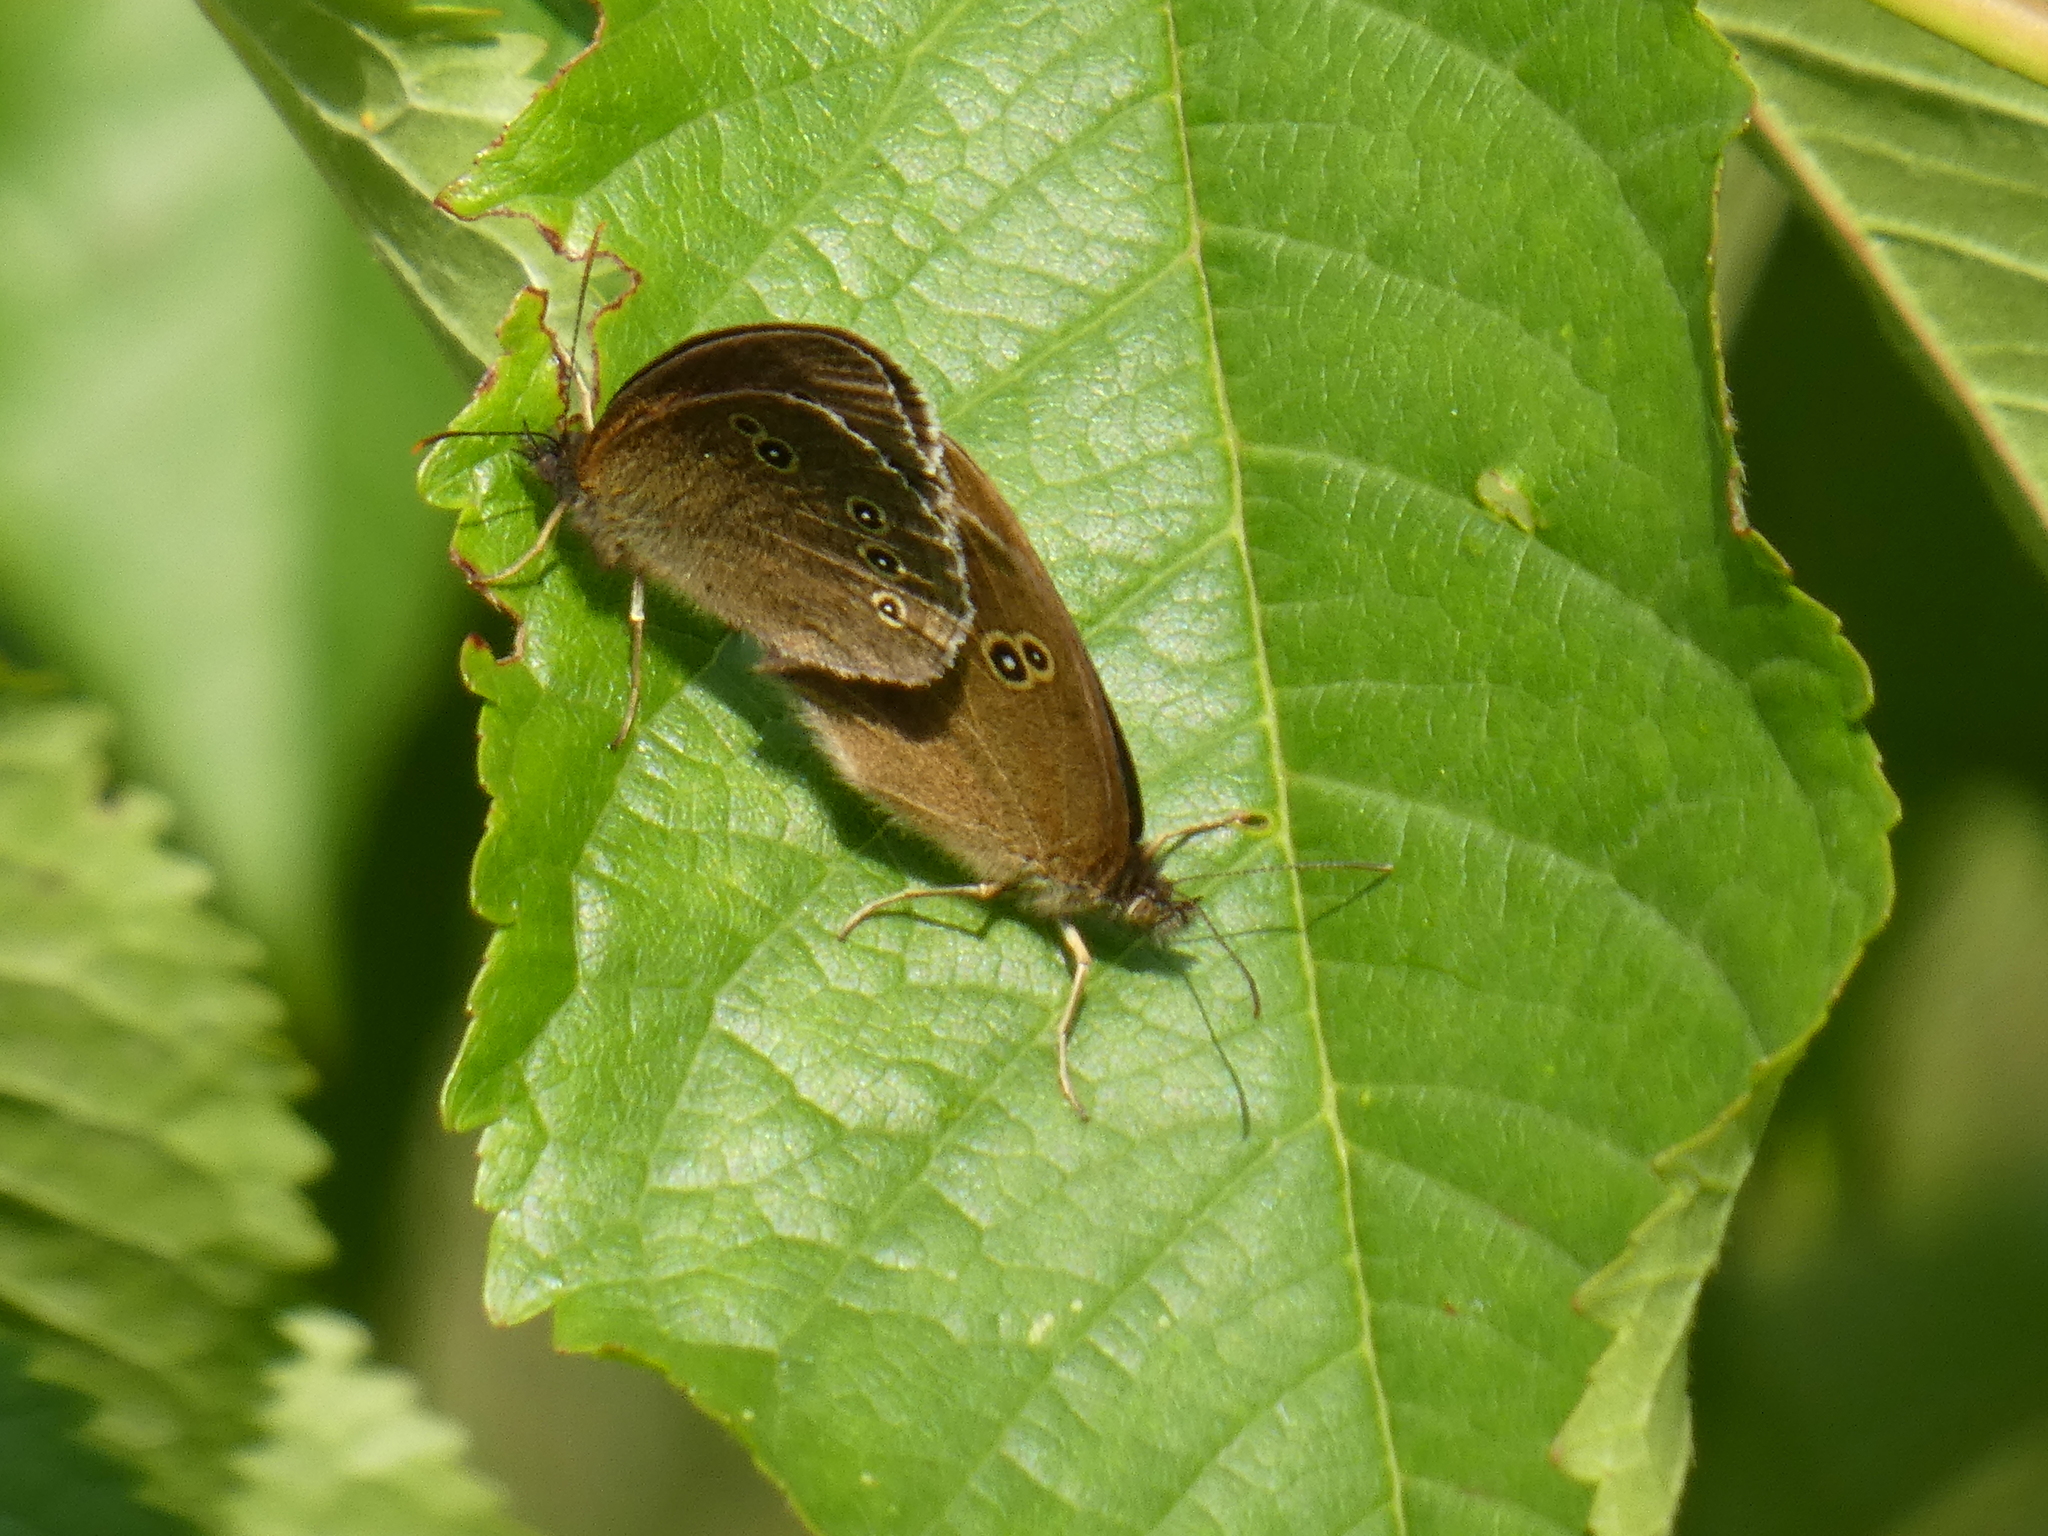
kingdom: Animalia
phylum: Arthropoda
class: Insecta
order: Lepidoptera
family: Nymphalidae
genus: Aphantopus
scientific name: Aphantopus hyperantus
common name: Ringlet
